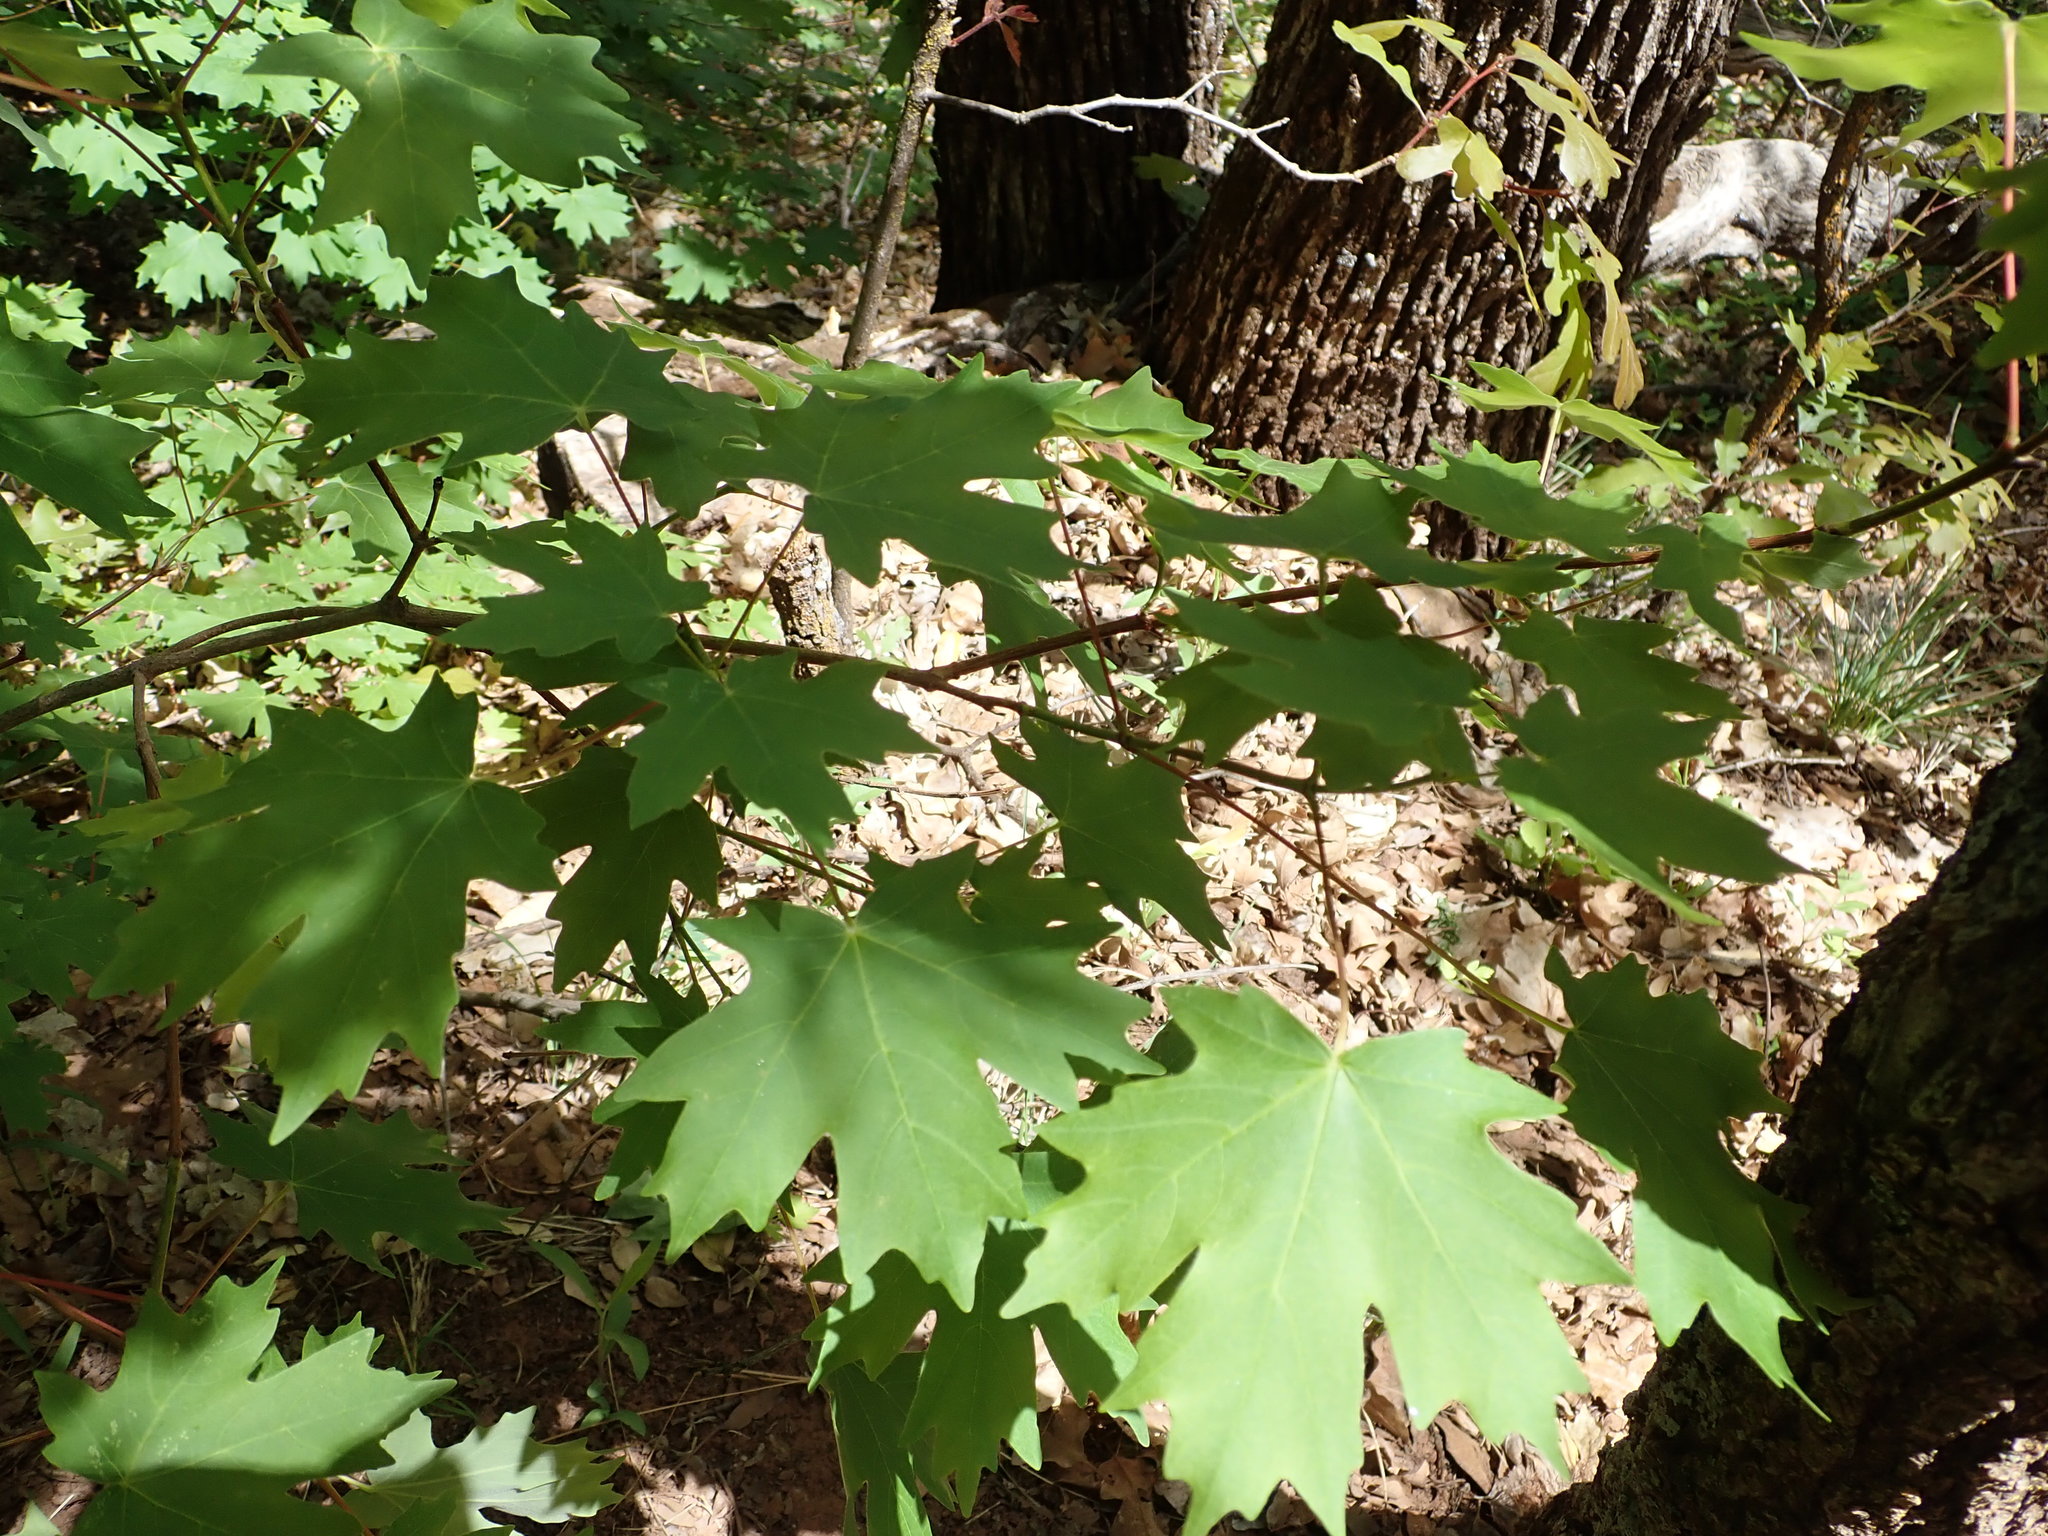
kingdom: Plantae
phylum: Tracheophyta
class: Magnoliopsida
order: Sapindales
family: Sapindaceae
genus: Acer
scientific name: Acer grandidentatum
